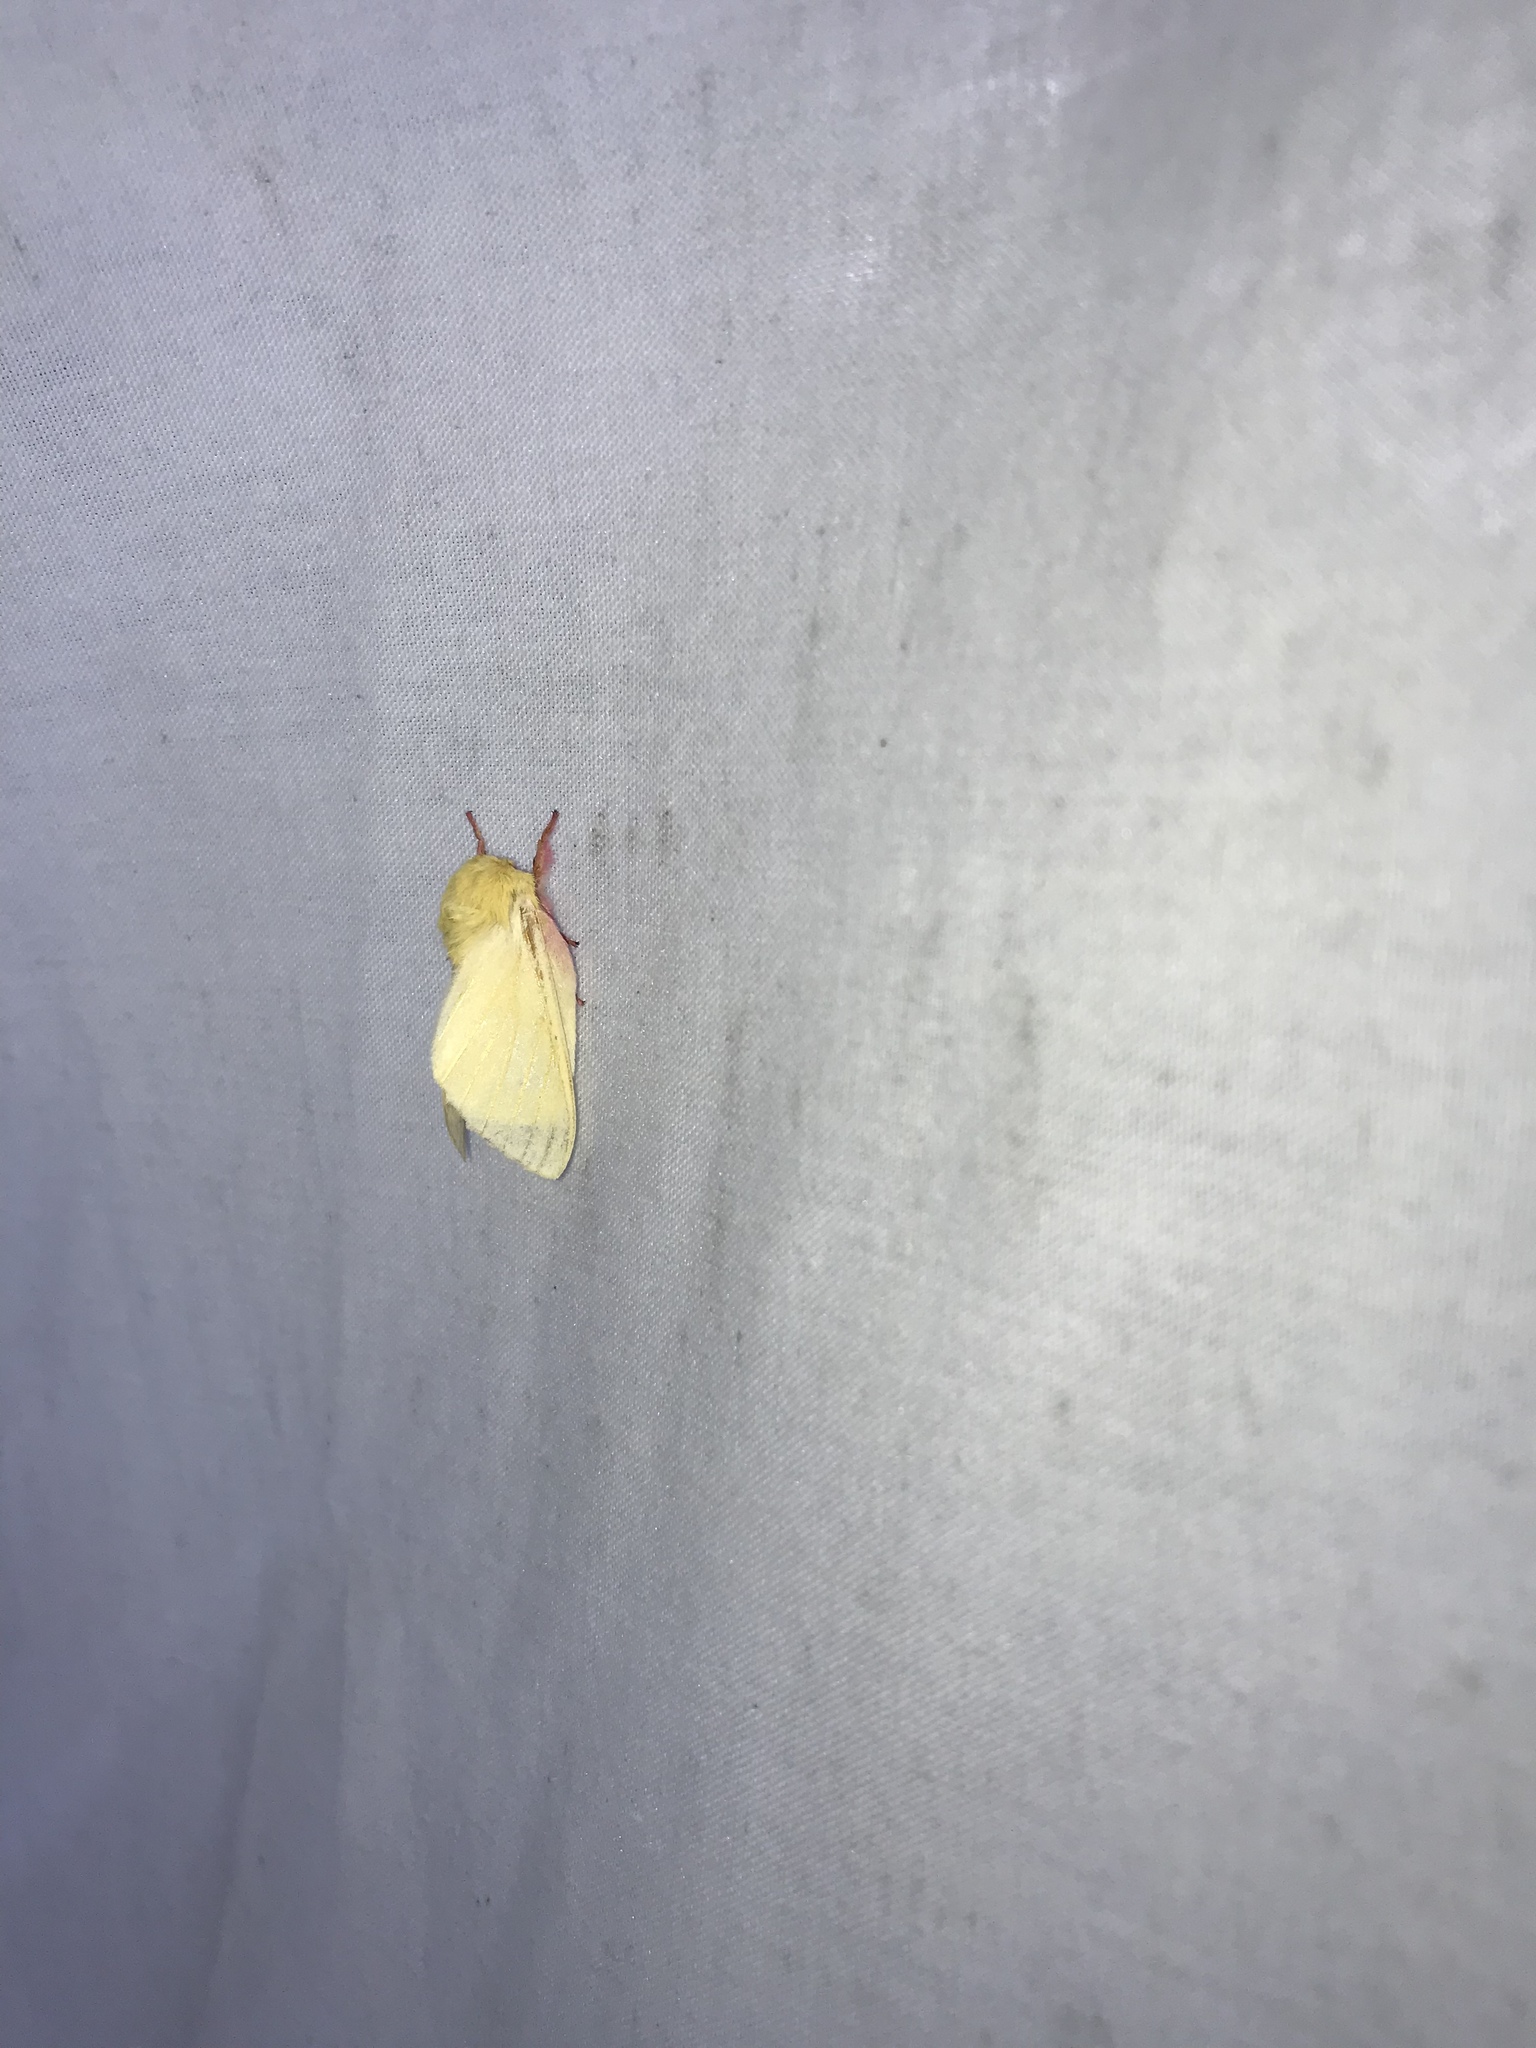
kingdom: Animalia
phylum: Arthropoda
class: Insecta
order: Lepidoptera
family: Saturniidae
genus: Dryocampa
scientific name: Dryocampa rubicunda
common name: Rosy maple moth
